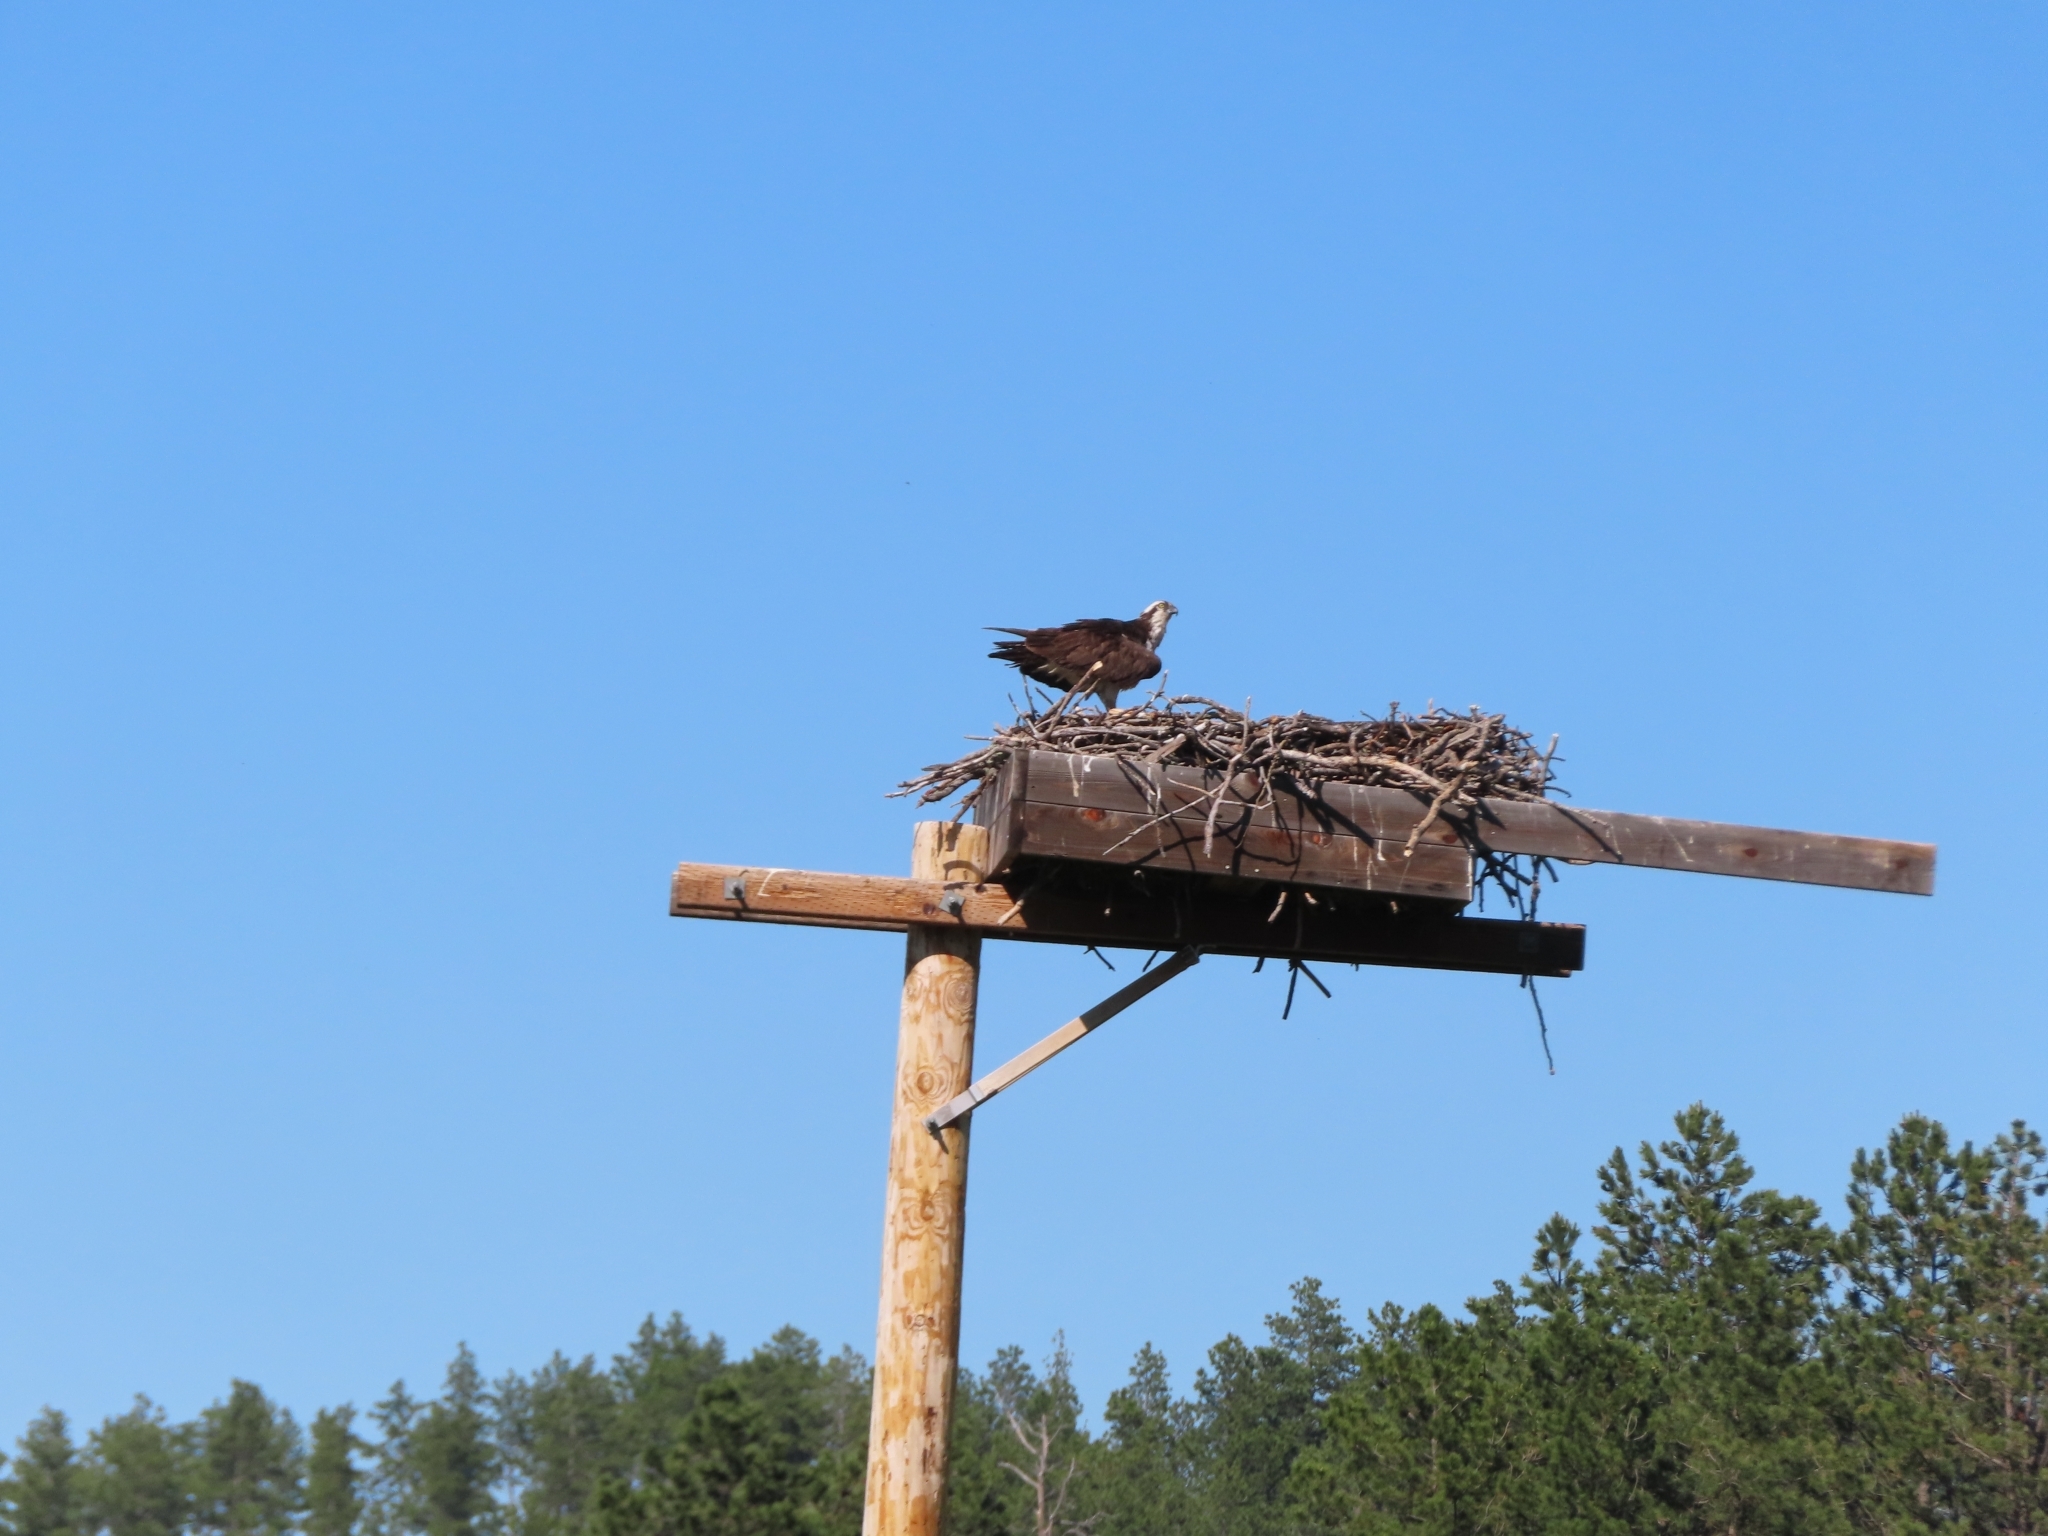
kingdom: Animalia
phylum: Chordata
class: Aves
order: Accipitriformes
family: Pandionidae
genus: Pandion
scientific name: Pandion haliaetus
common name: Osprey
